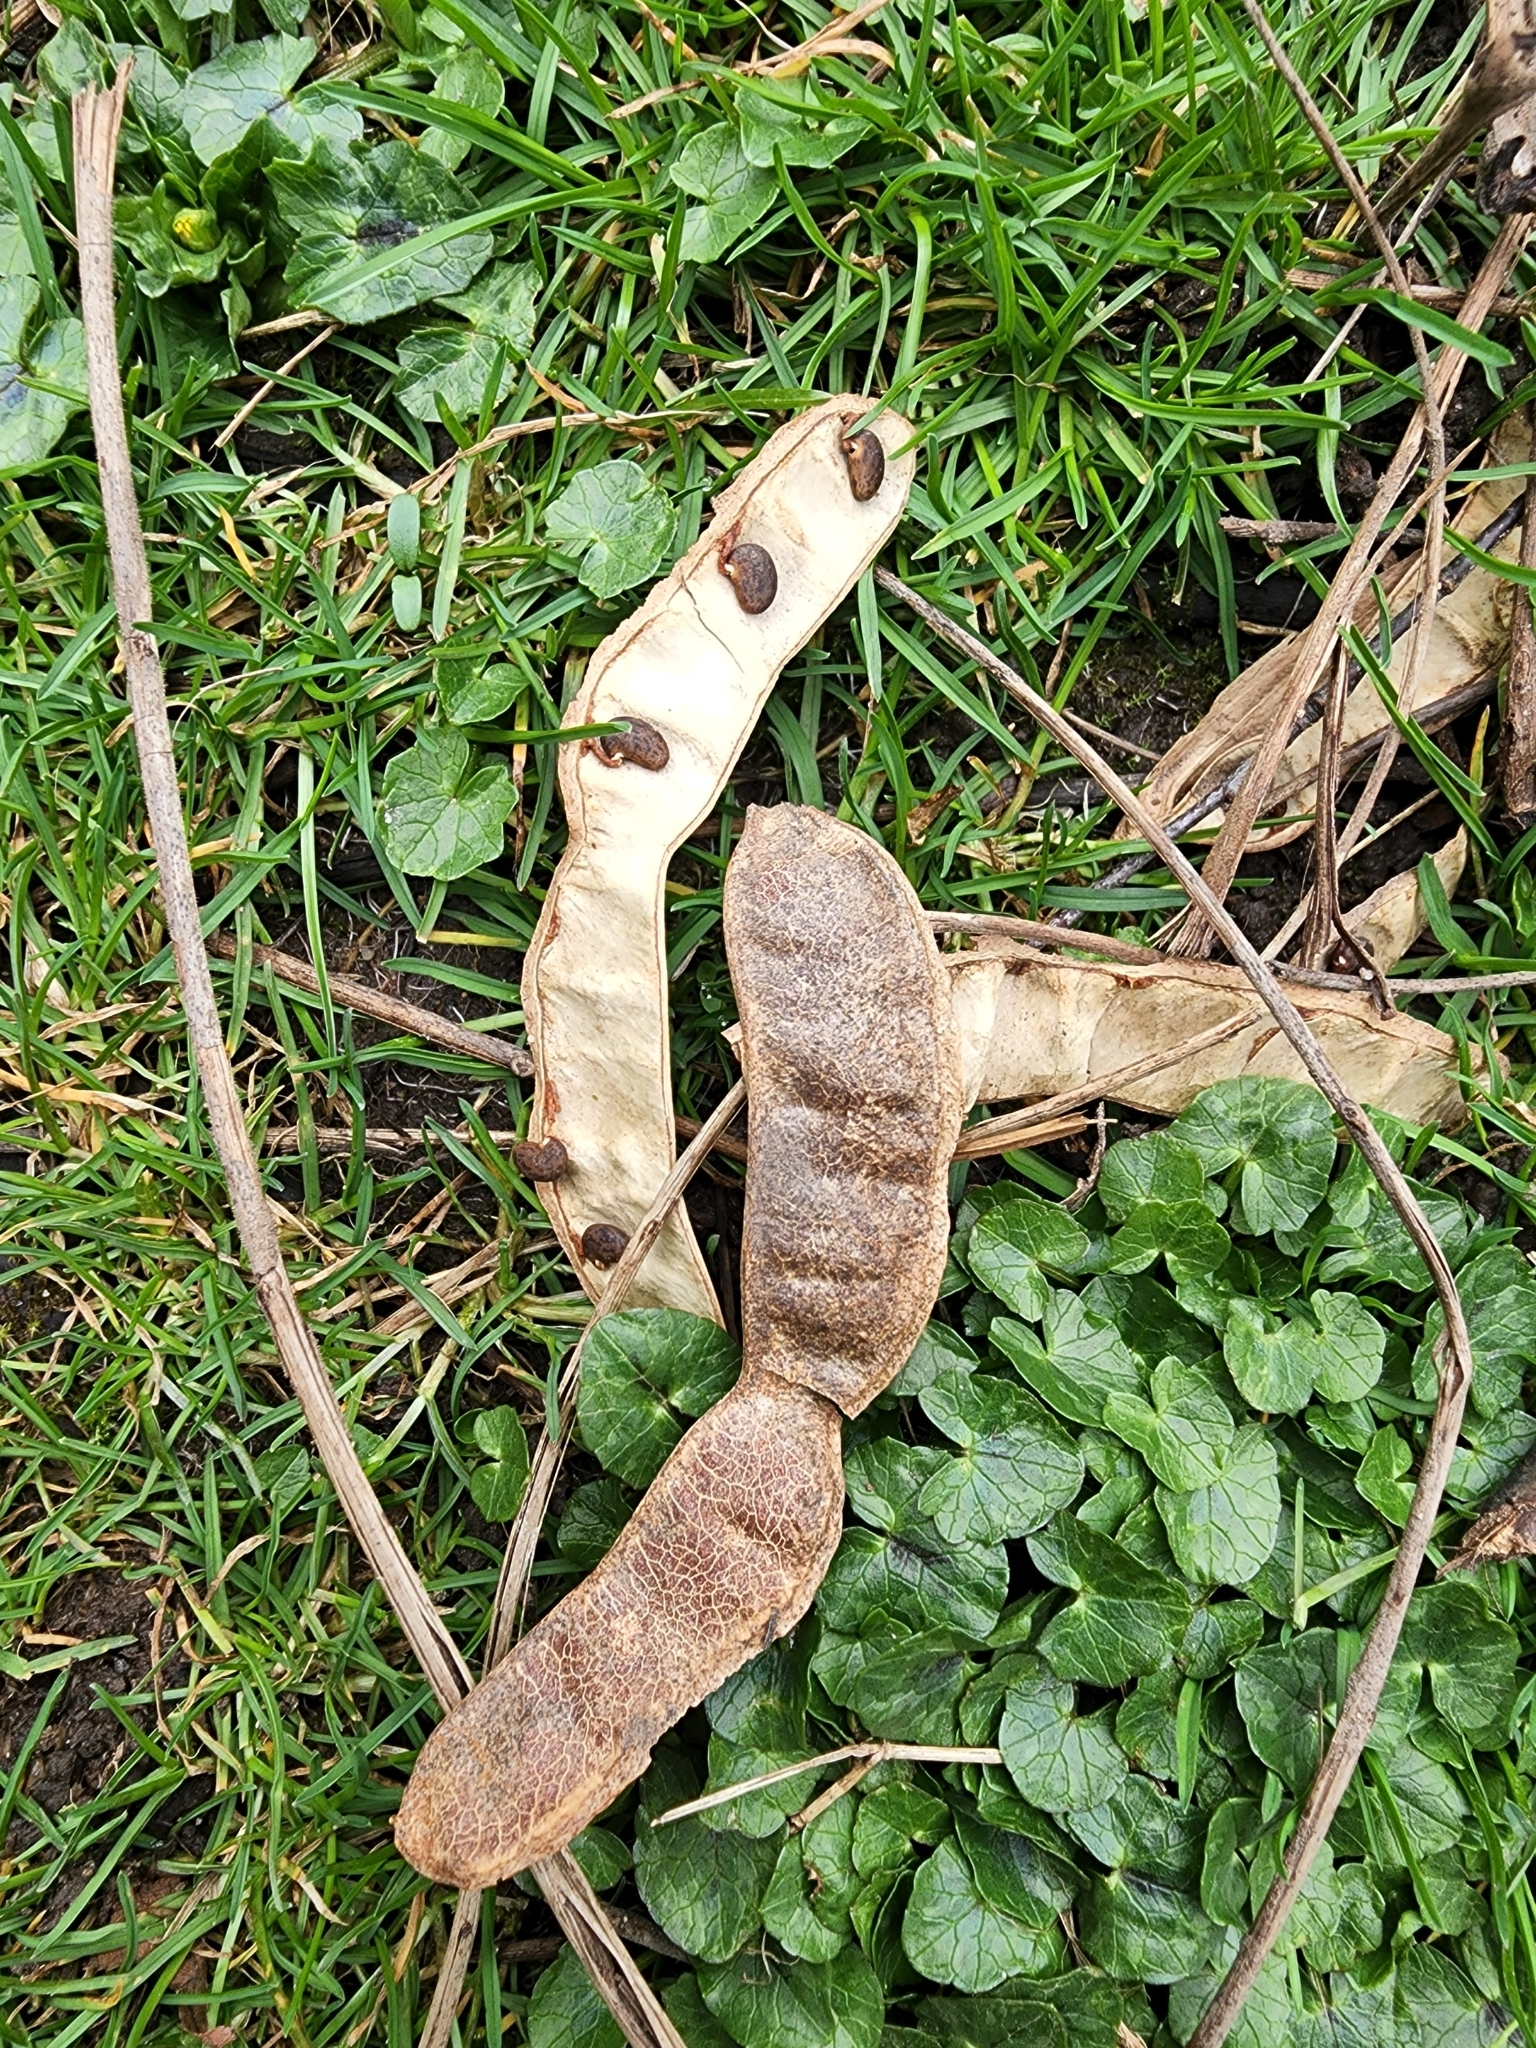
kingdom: Plantae
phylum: Tracheophyta
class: Magnoliopsida
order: Fabales
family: Fabaceae
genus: Robinia
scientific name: Robinia pseudoacacia
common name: Black locust
